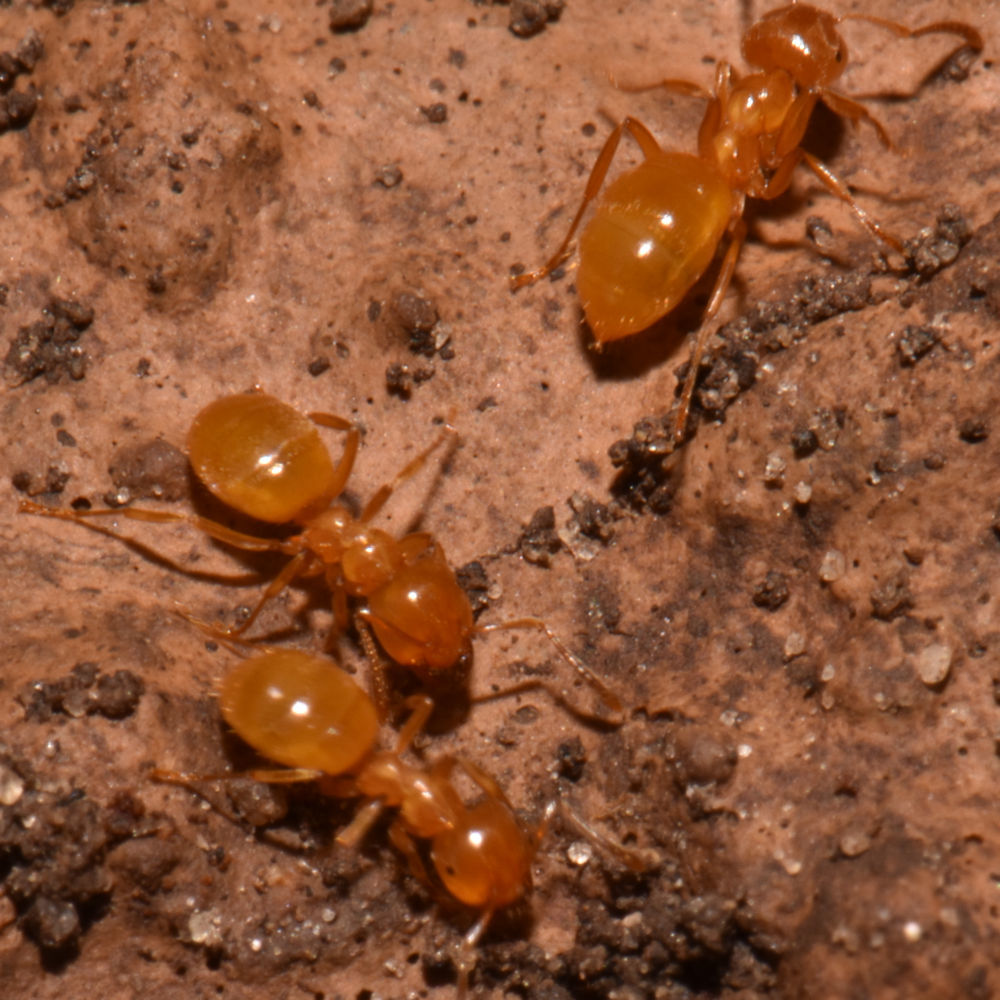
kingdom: Animalia
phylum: Arthropoda
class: Insecta
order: Hymenoptera
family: Formicidae
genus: Lasius
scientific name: Lasius
